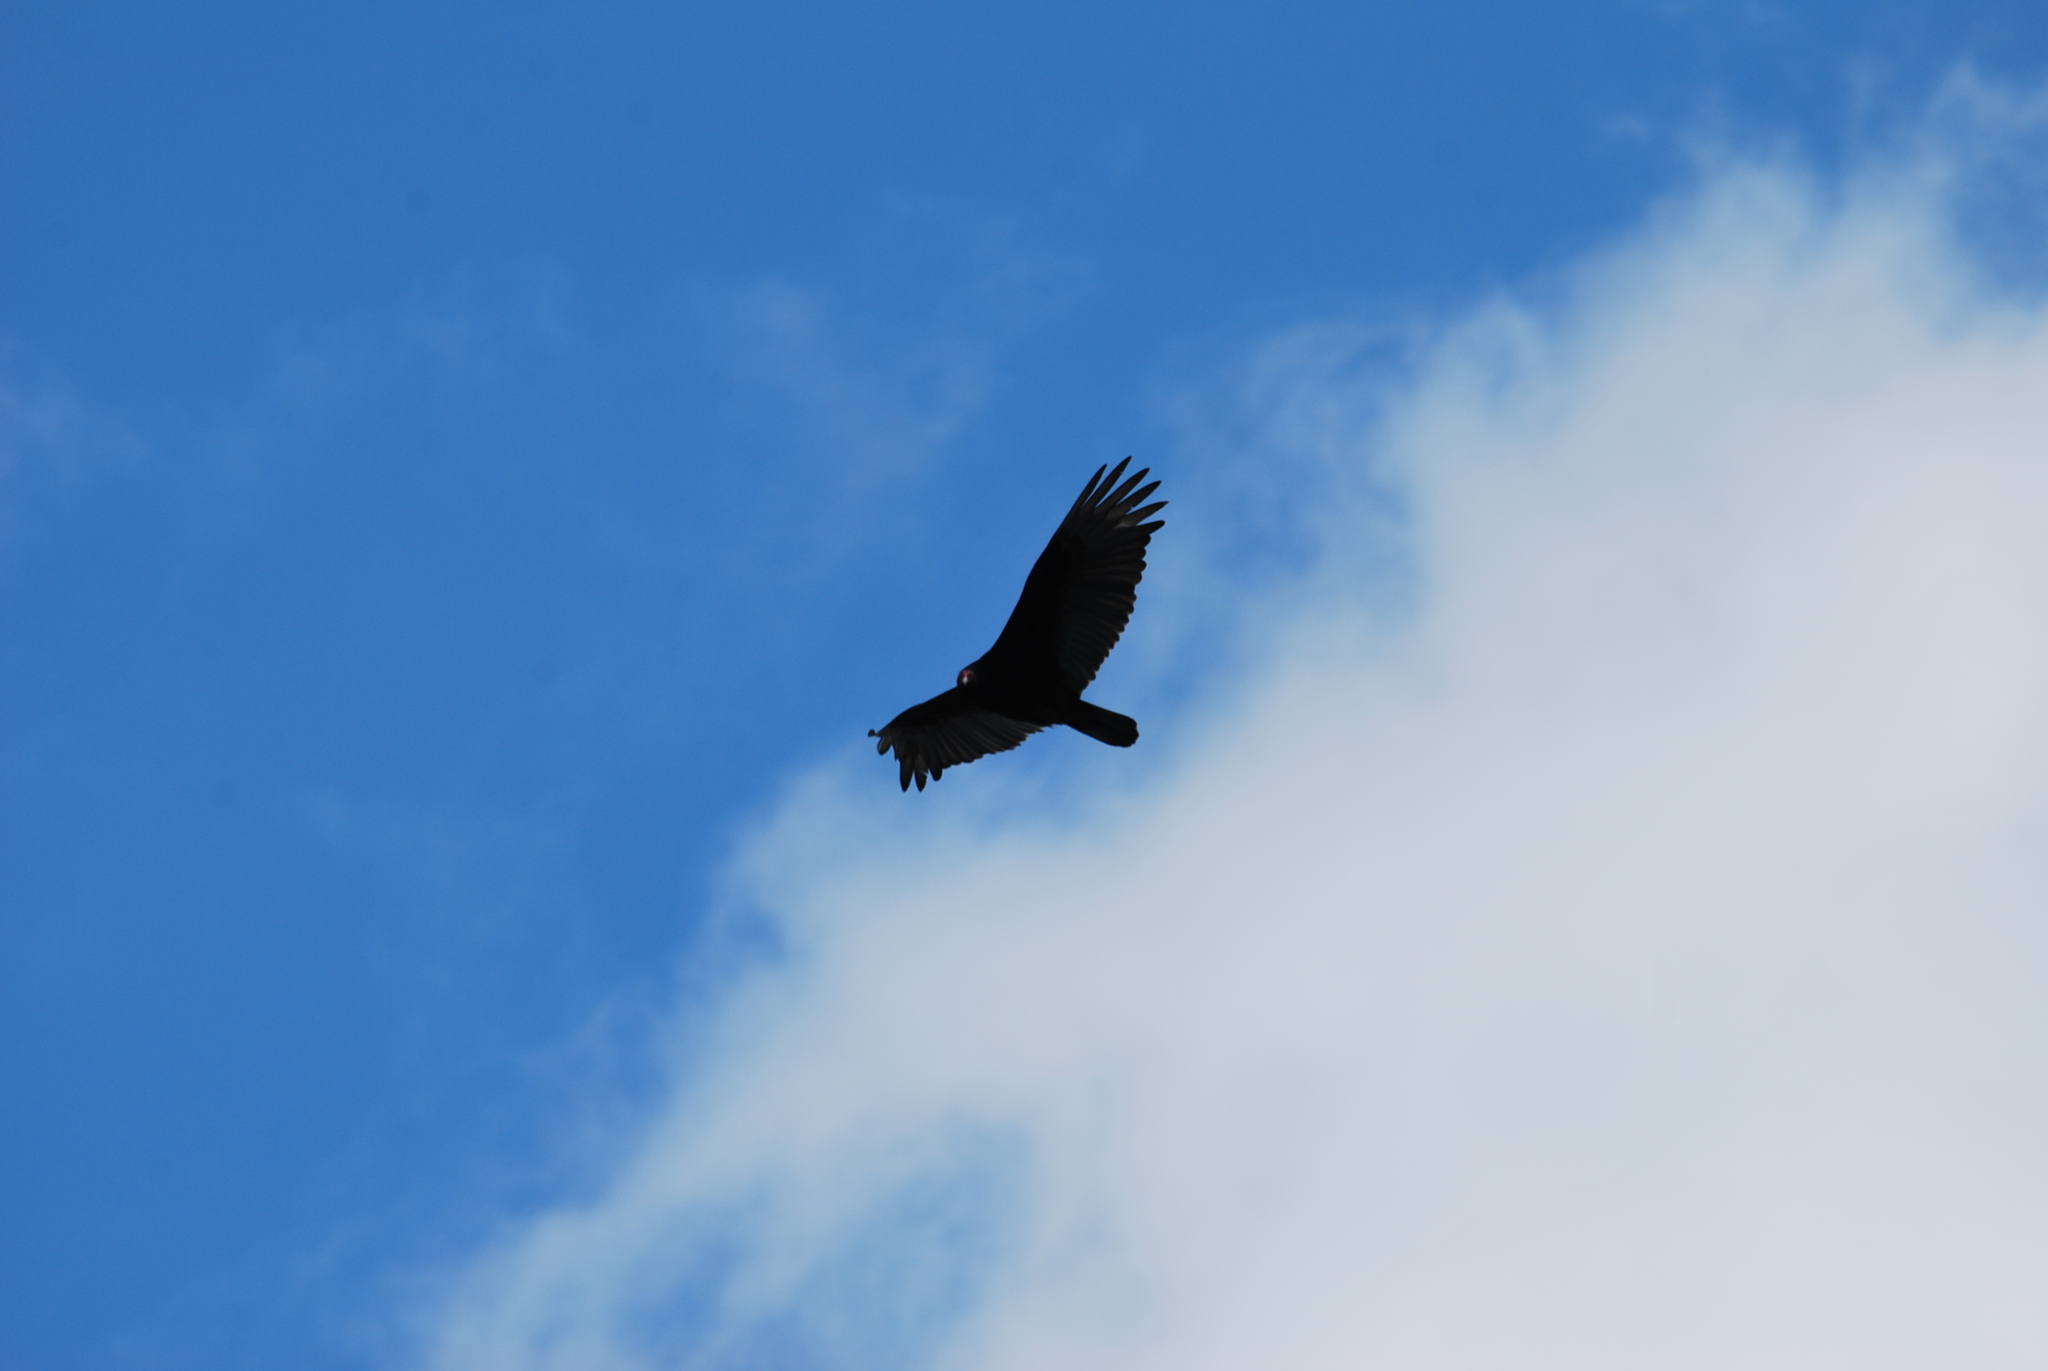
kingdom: Animalia
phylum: Chordata
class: Aves
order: Accipitriformes
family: Cathartidae
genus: Cathartes
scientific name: Cathartes aura
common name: Turkey vulture
